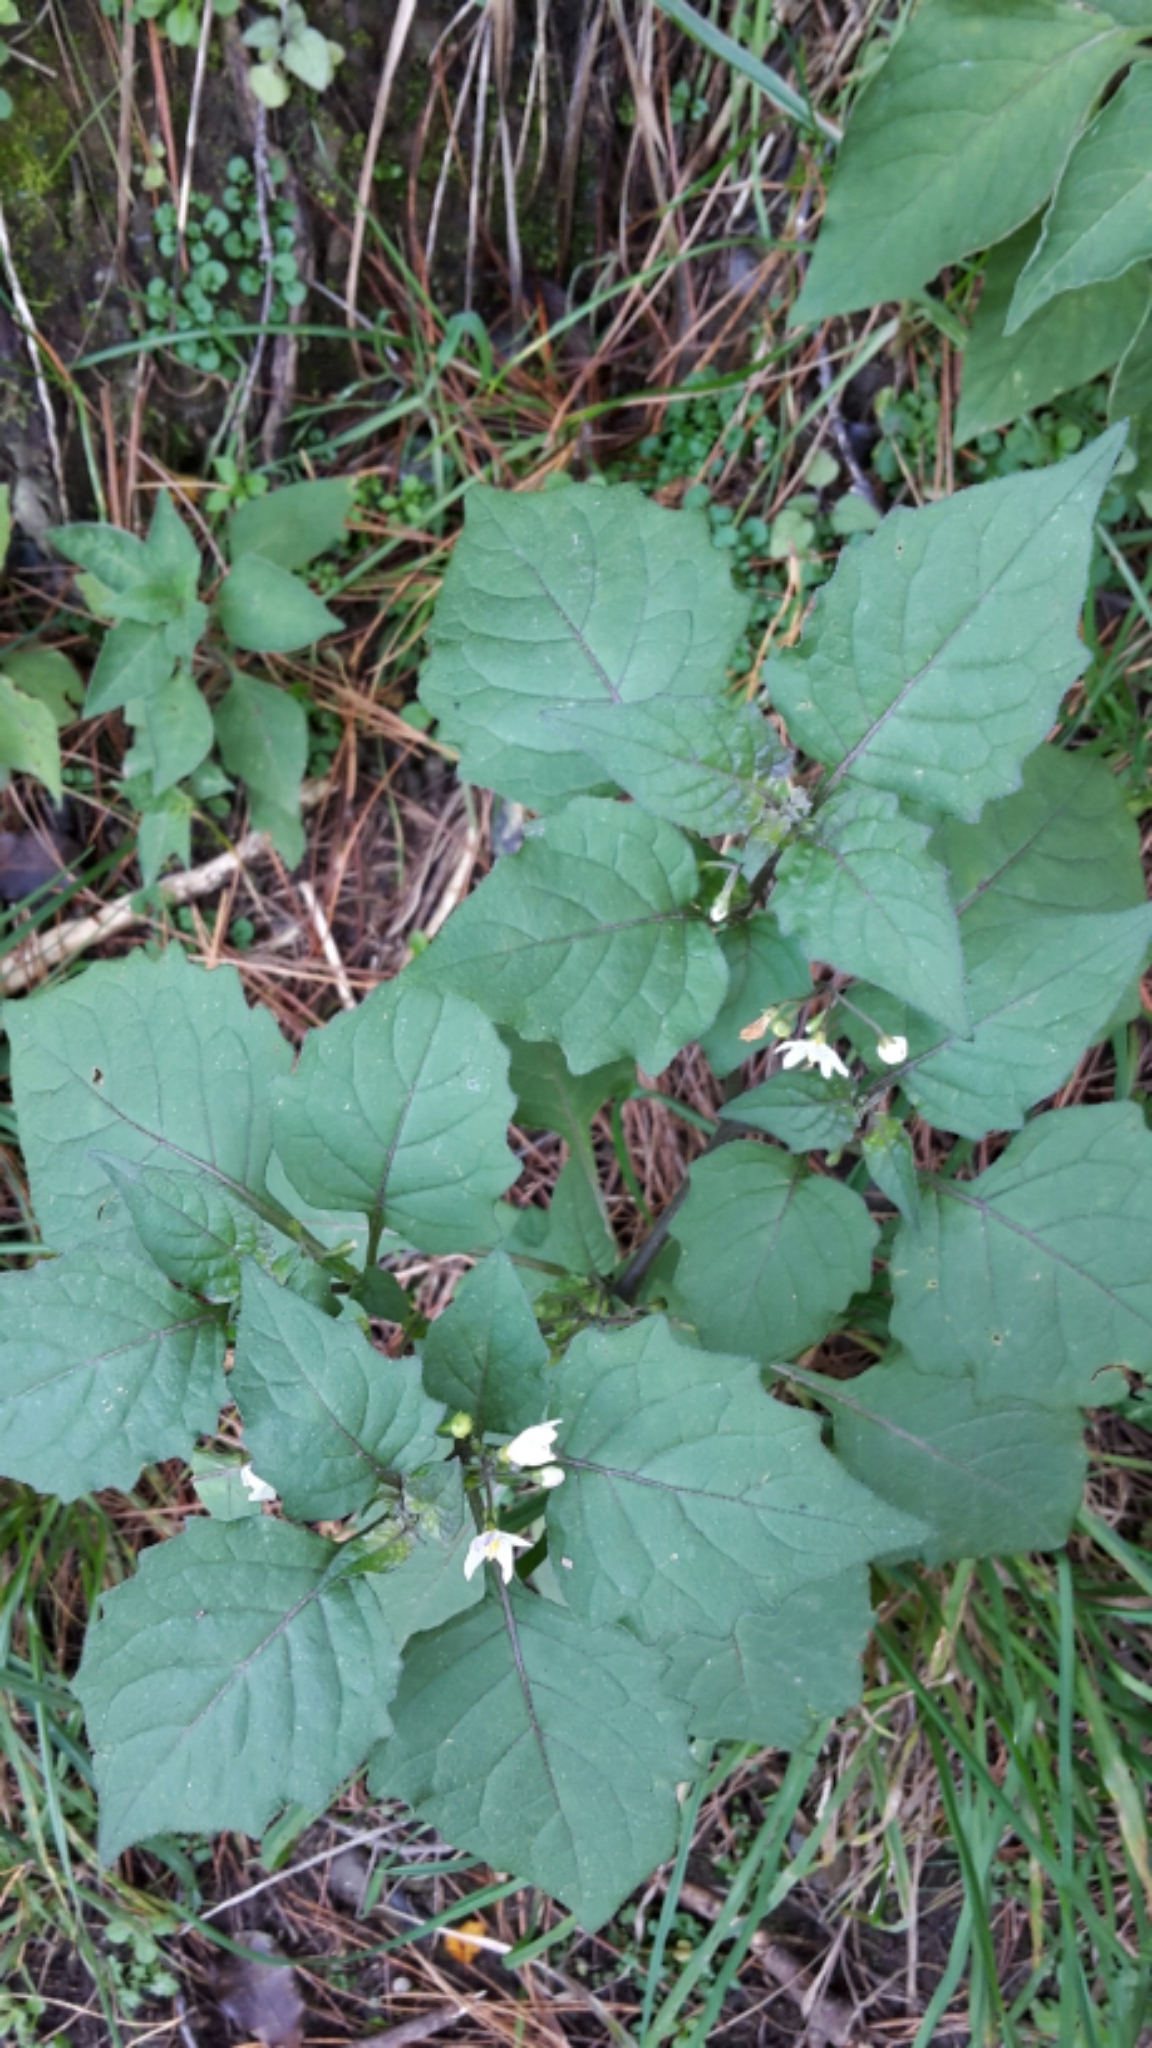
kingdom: Plantae
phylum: Tracheophyta
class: Magnoliopsida
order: Solanales
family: Solanaceae
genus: Solanum
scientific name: Solanum nigrum
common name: Black nightshade
